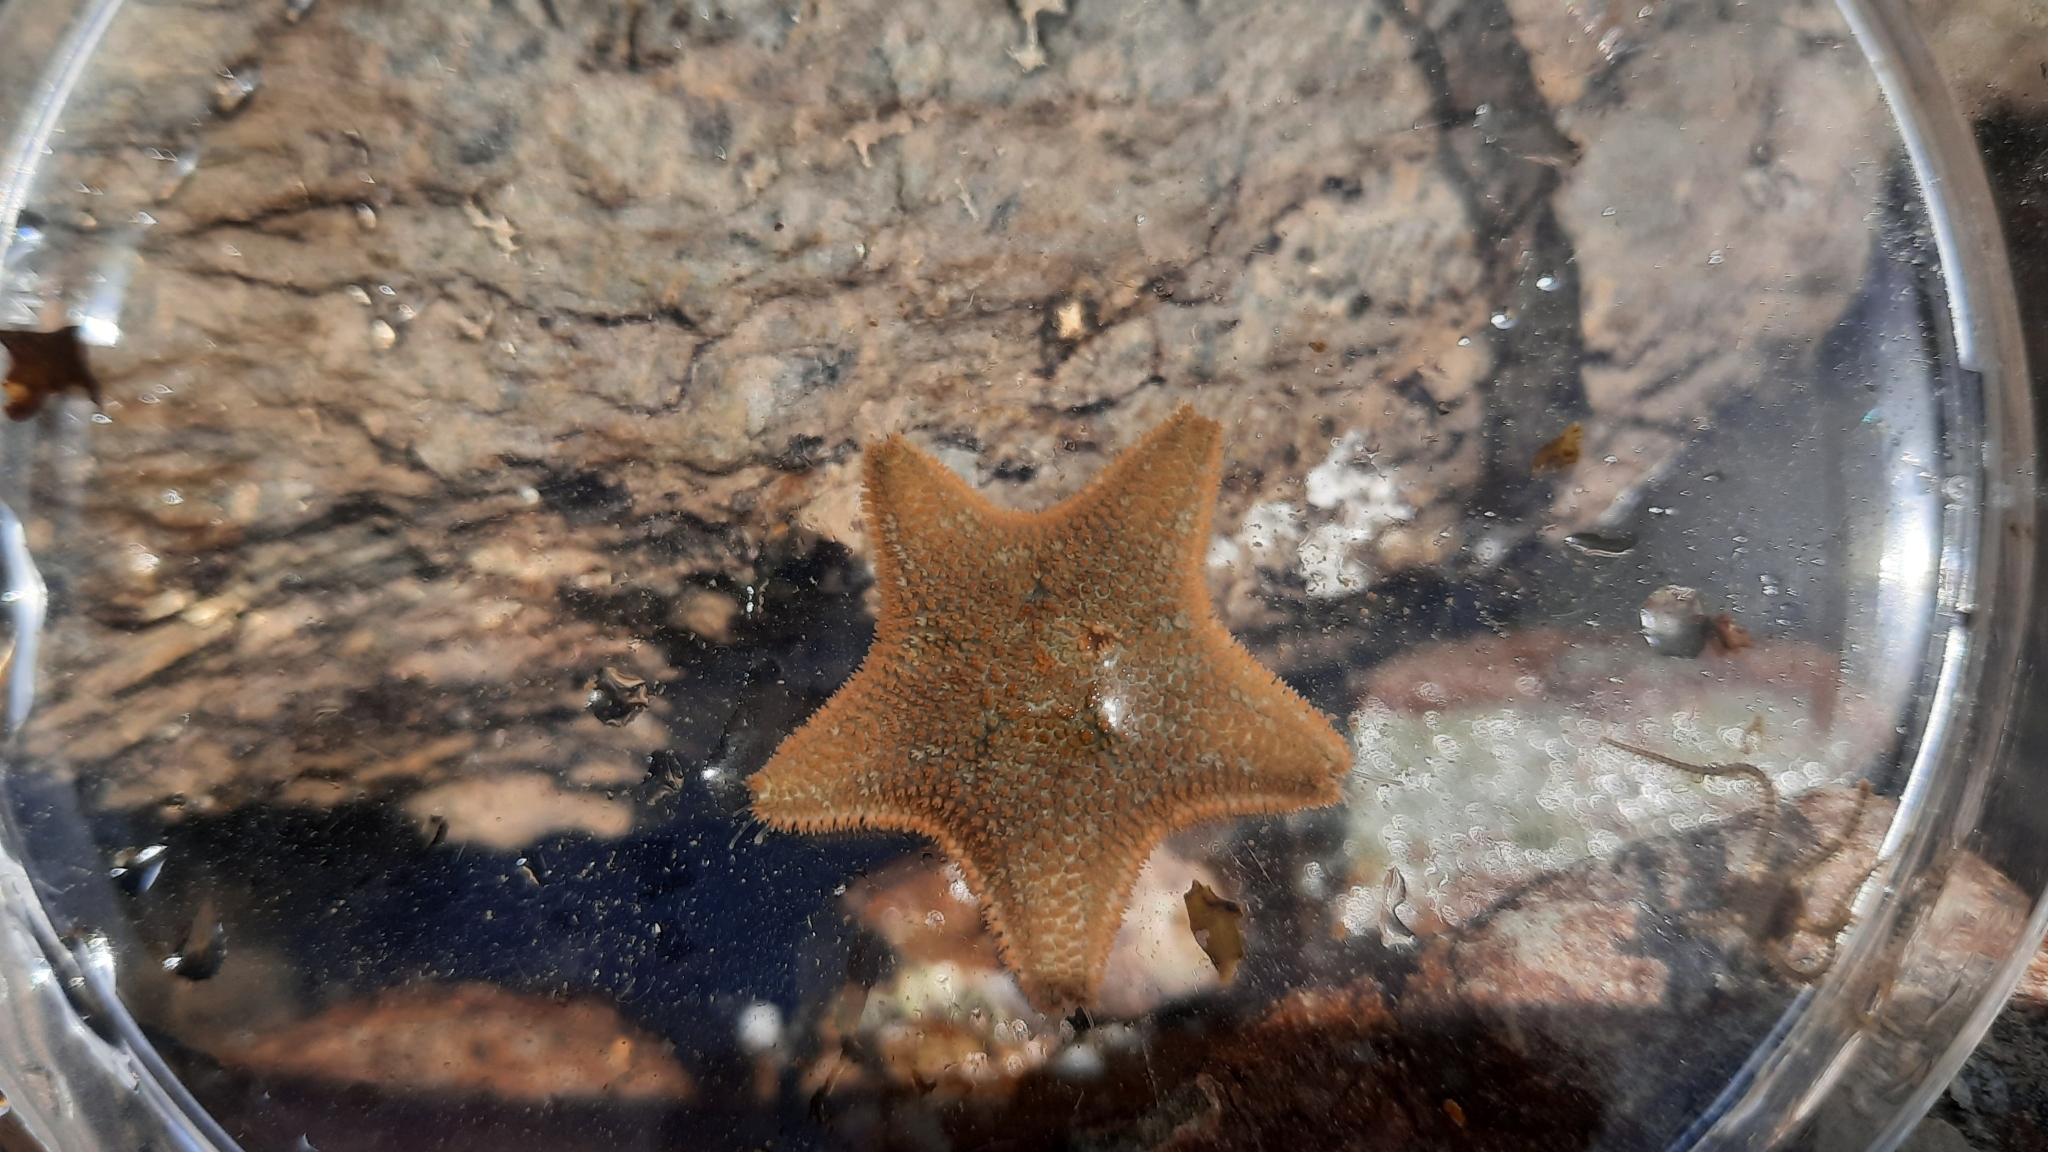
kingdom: Animalia
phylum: Echinodermata
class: Asteroidea
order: Valvatida
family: Asterinidae
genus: Asterina
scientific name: Asterina gibbosa
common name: Cushion star
